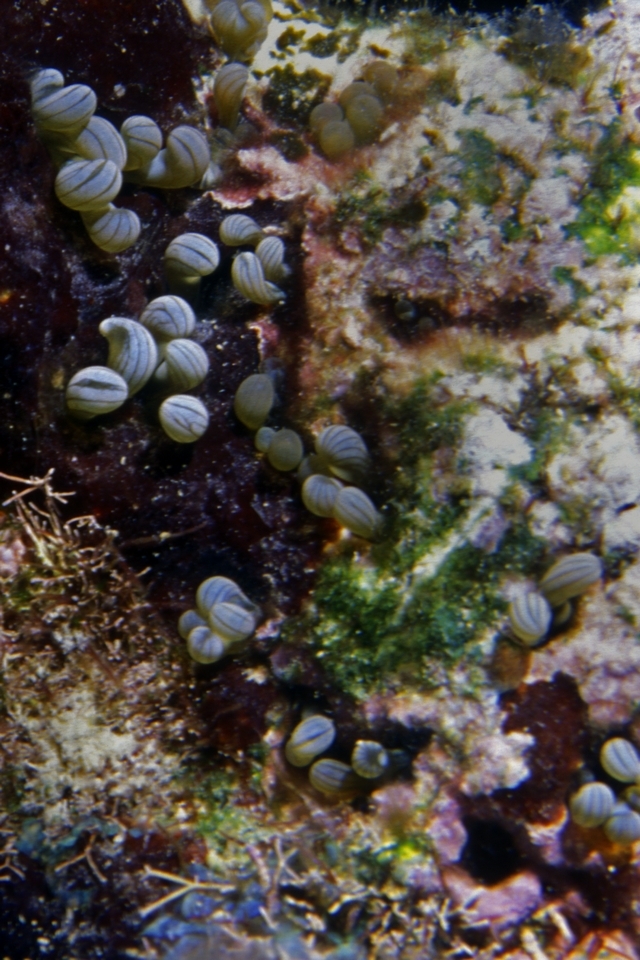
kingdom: Animalia
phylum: Cnidaria
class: Anthozoa
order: Actiniaria
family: Aliciidae
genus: Lebrunia
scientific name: Lebrunia coralligens
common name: Hidden anemone
